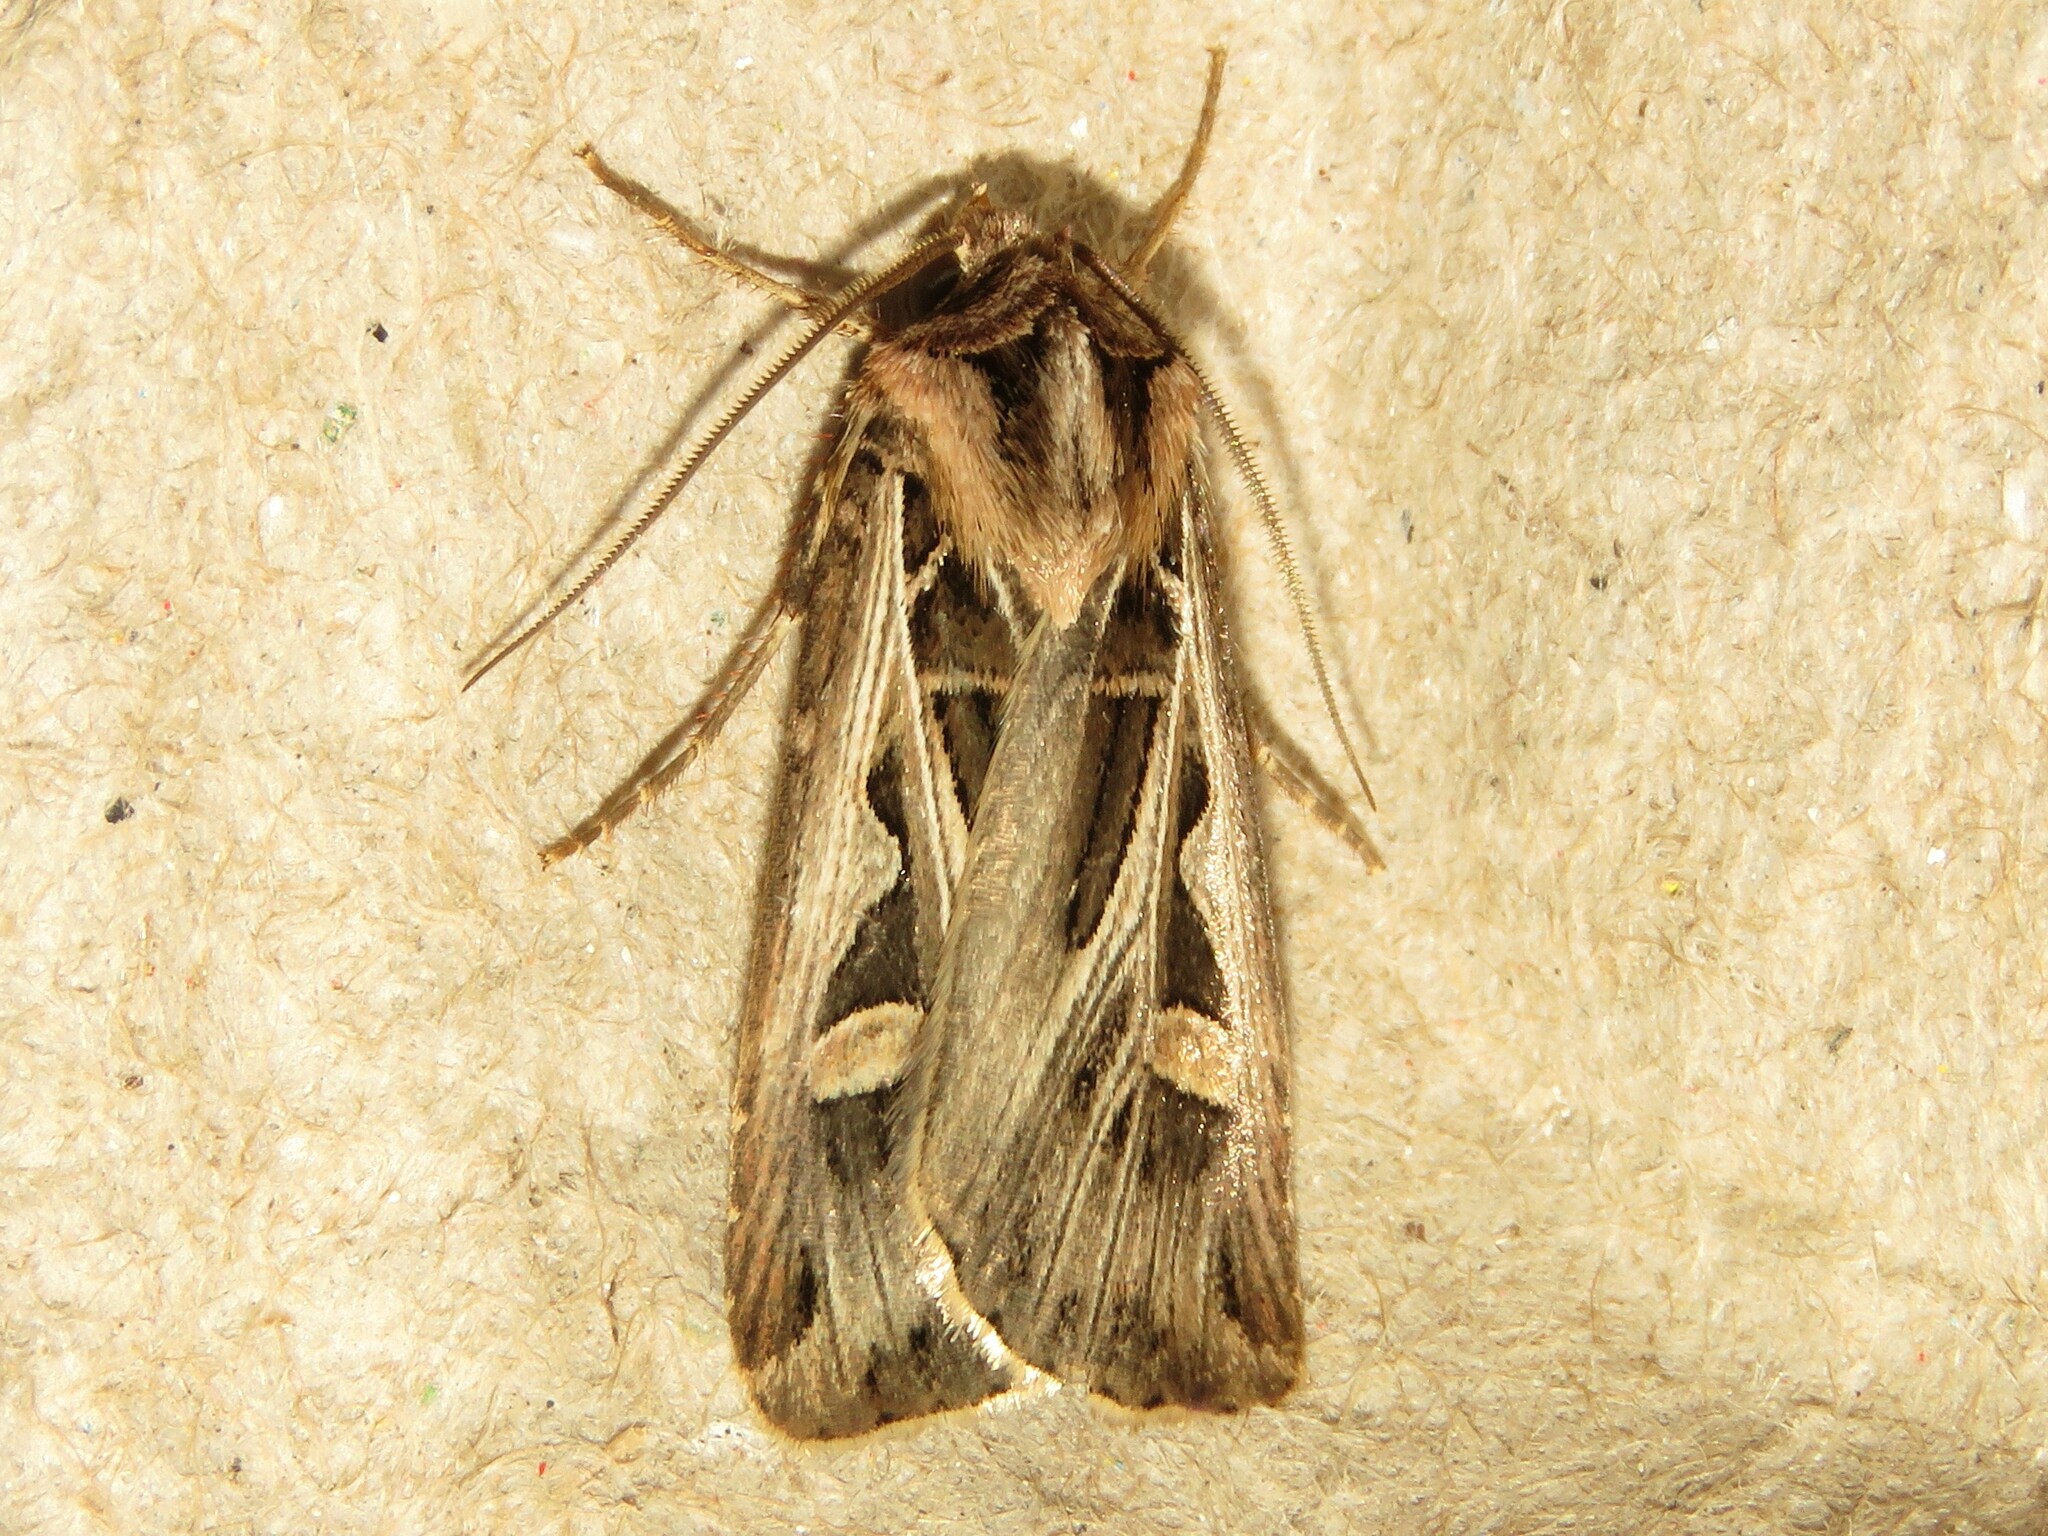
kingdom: Animalia
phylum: Arthropoda
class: Insecta
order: Lepidoptera
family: Noctuidae
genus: Feltia
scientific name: Feltia jaculifera
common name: Dingy cutworm moth
